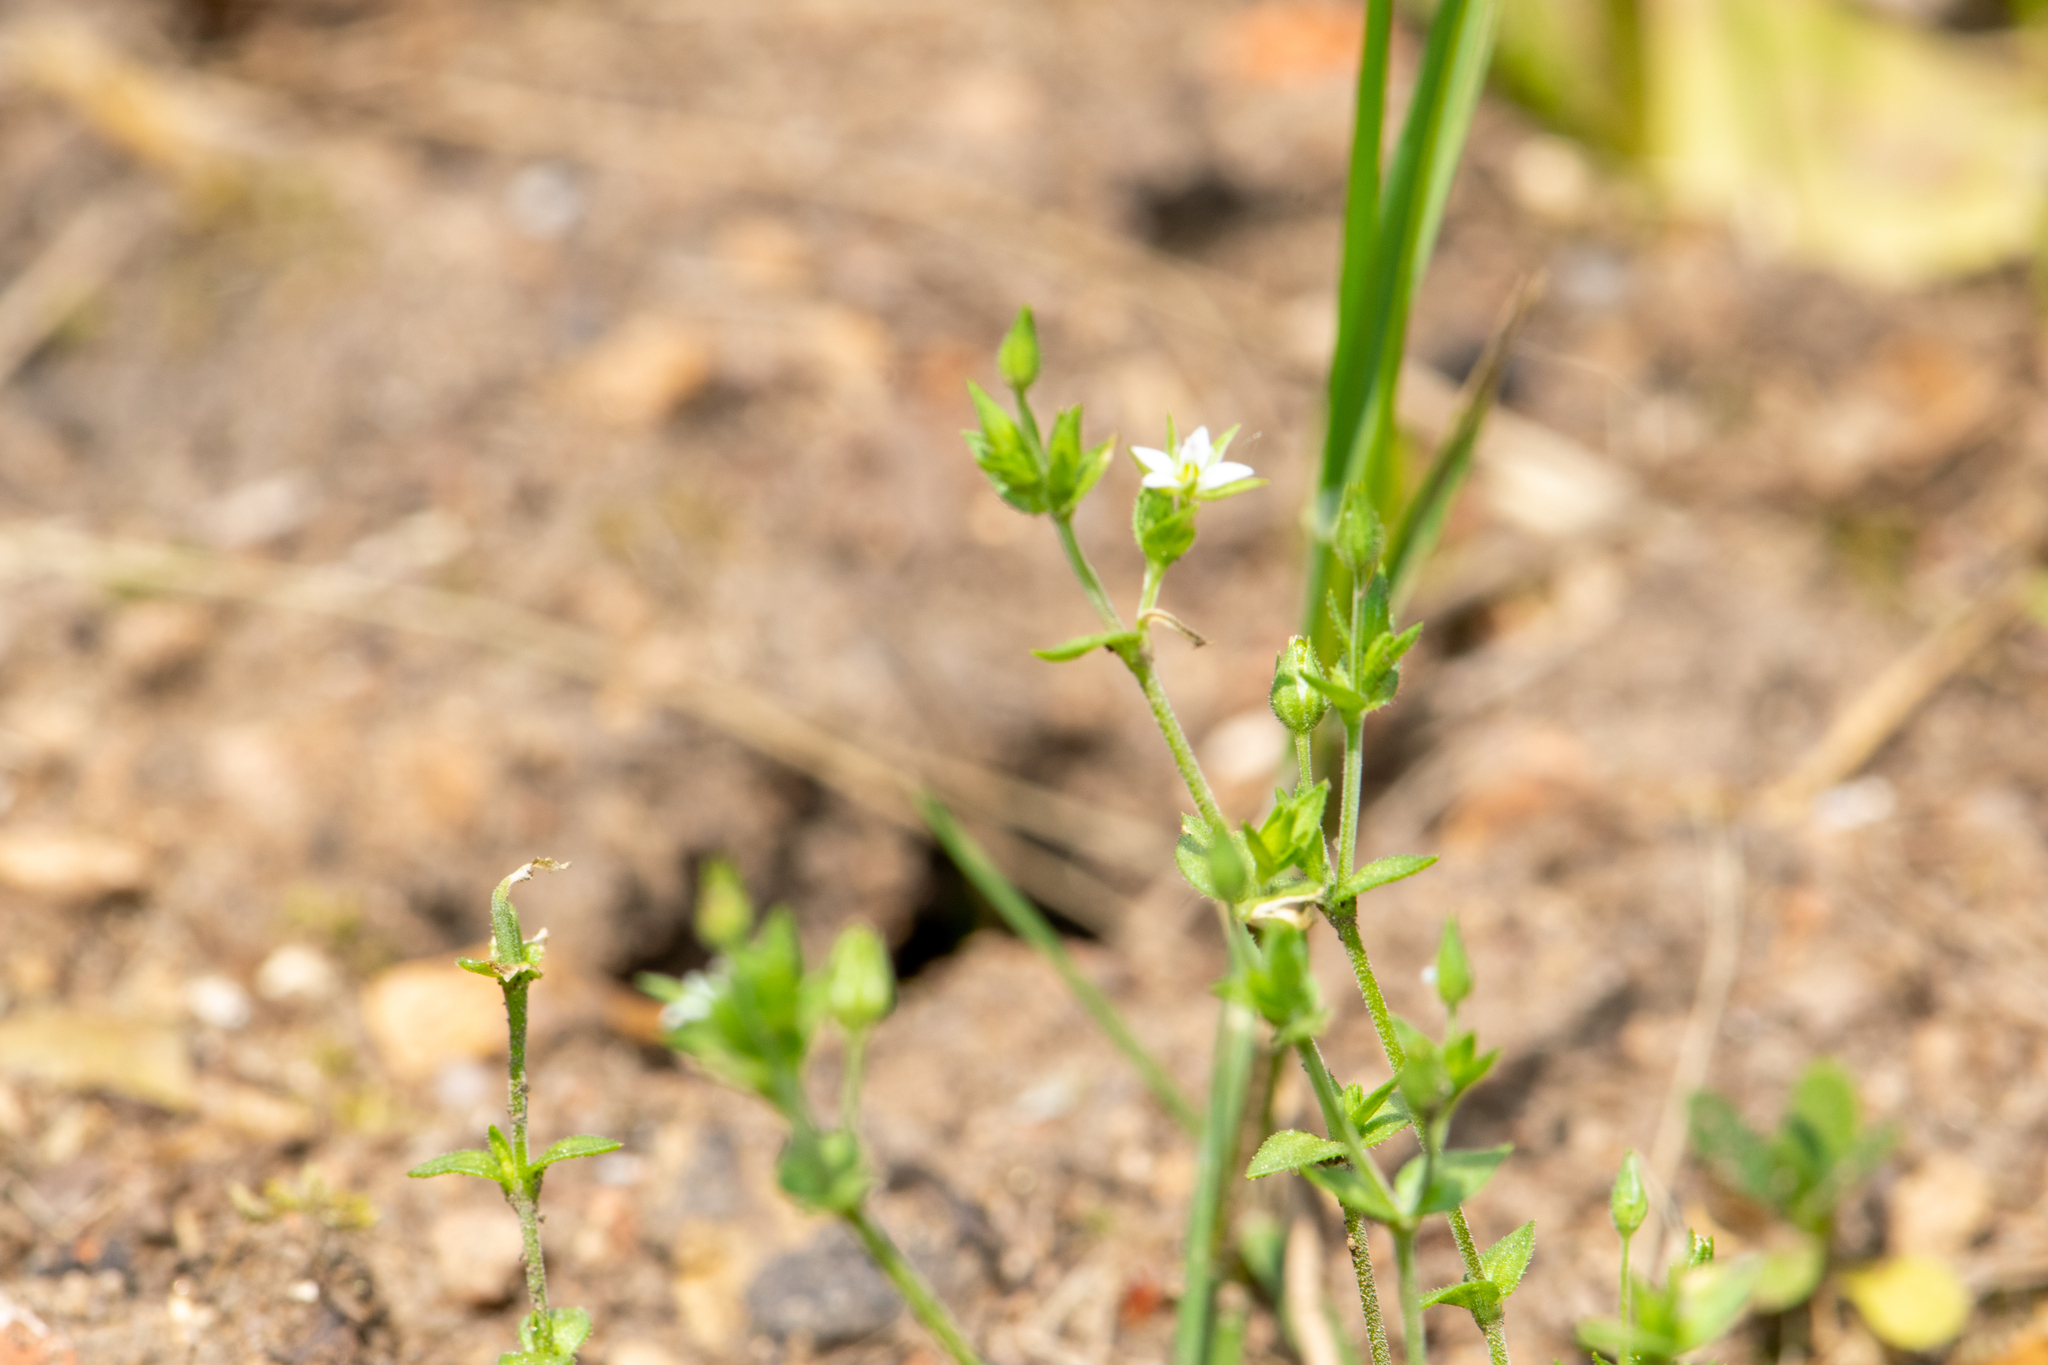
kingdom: Plantae
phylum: Tracheophyta
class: Magnoliopsida
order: Caryophyllales
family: Caryophyllaceae
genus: Arenaria
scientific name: Arenaria serpyllifolia
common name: Thyme-leaved sandwort
